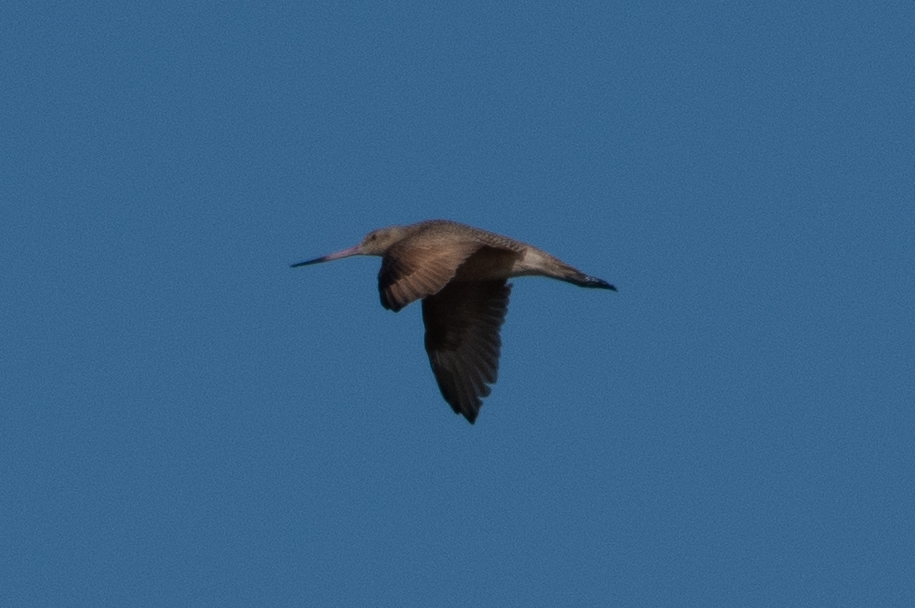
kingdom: Animalia
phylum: Chordata
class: Aves
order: Charadriiformes
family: Scolopacidae
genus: Limosa
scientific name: Limosa fedoa
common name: Marbled godwit
